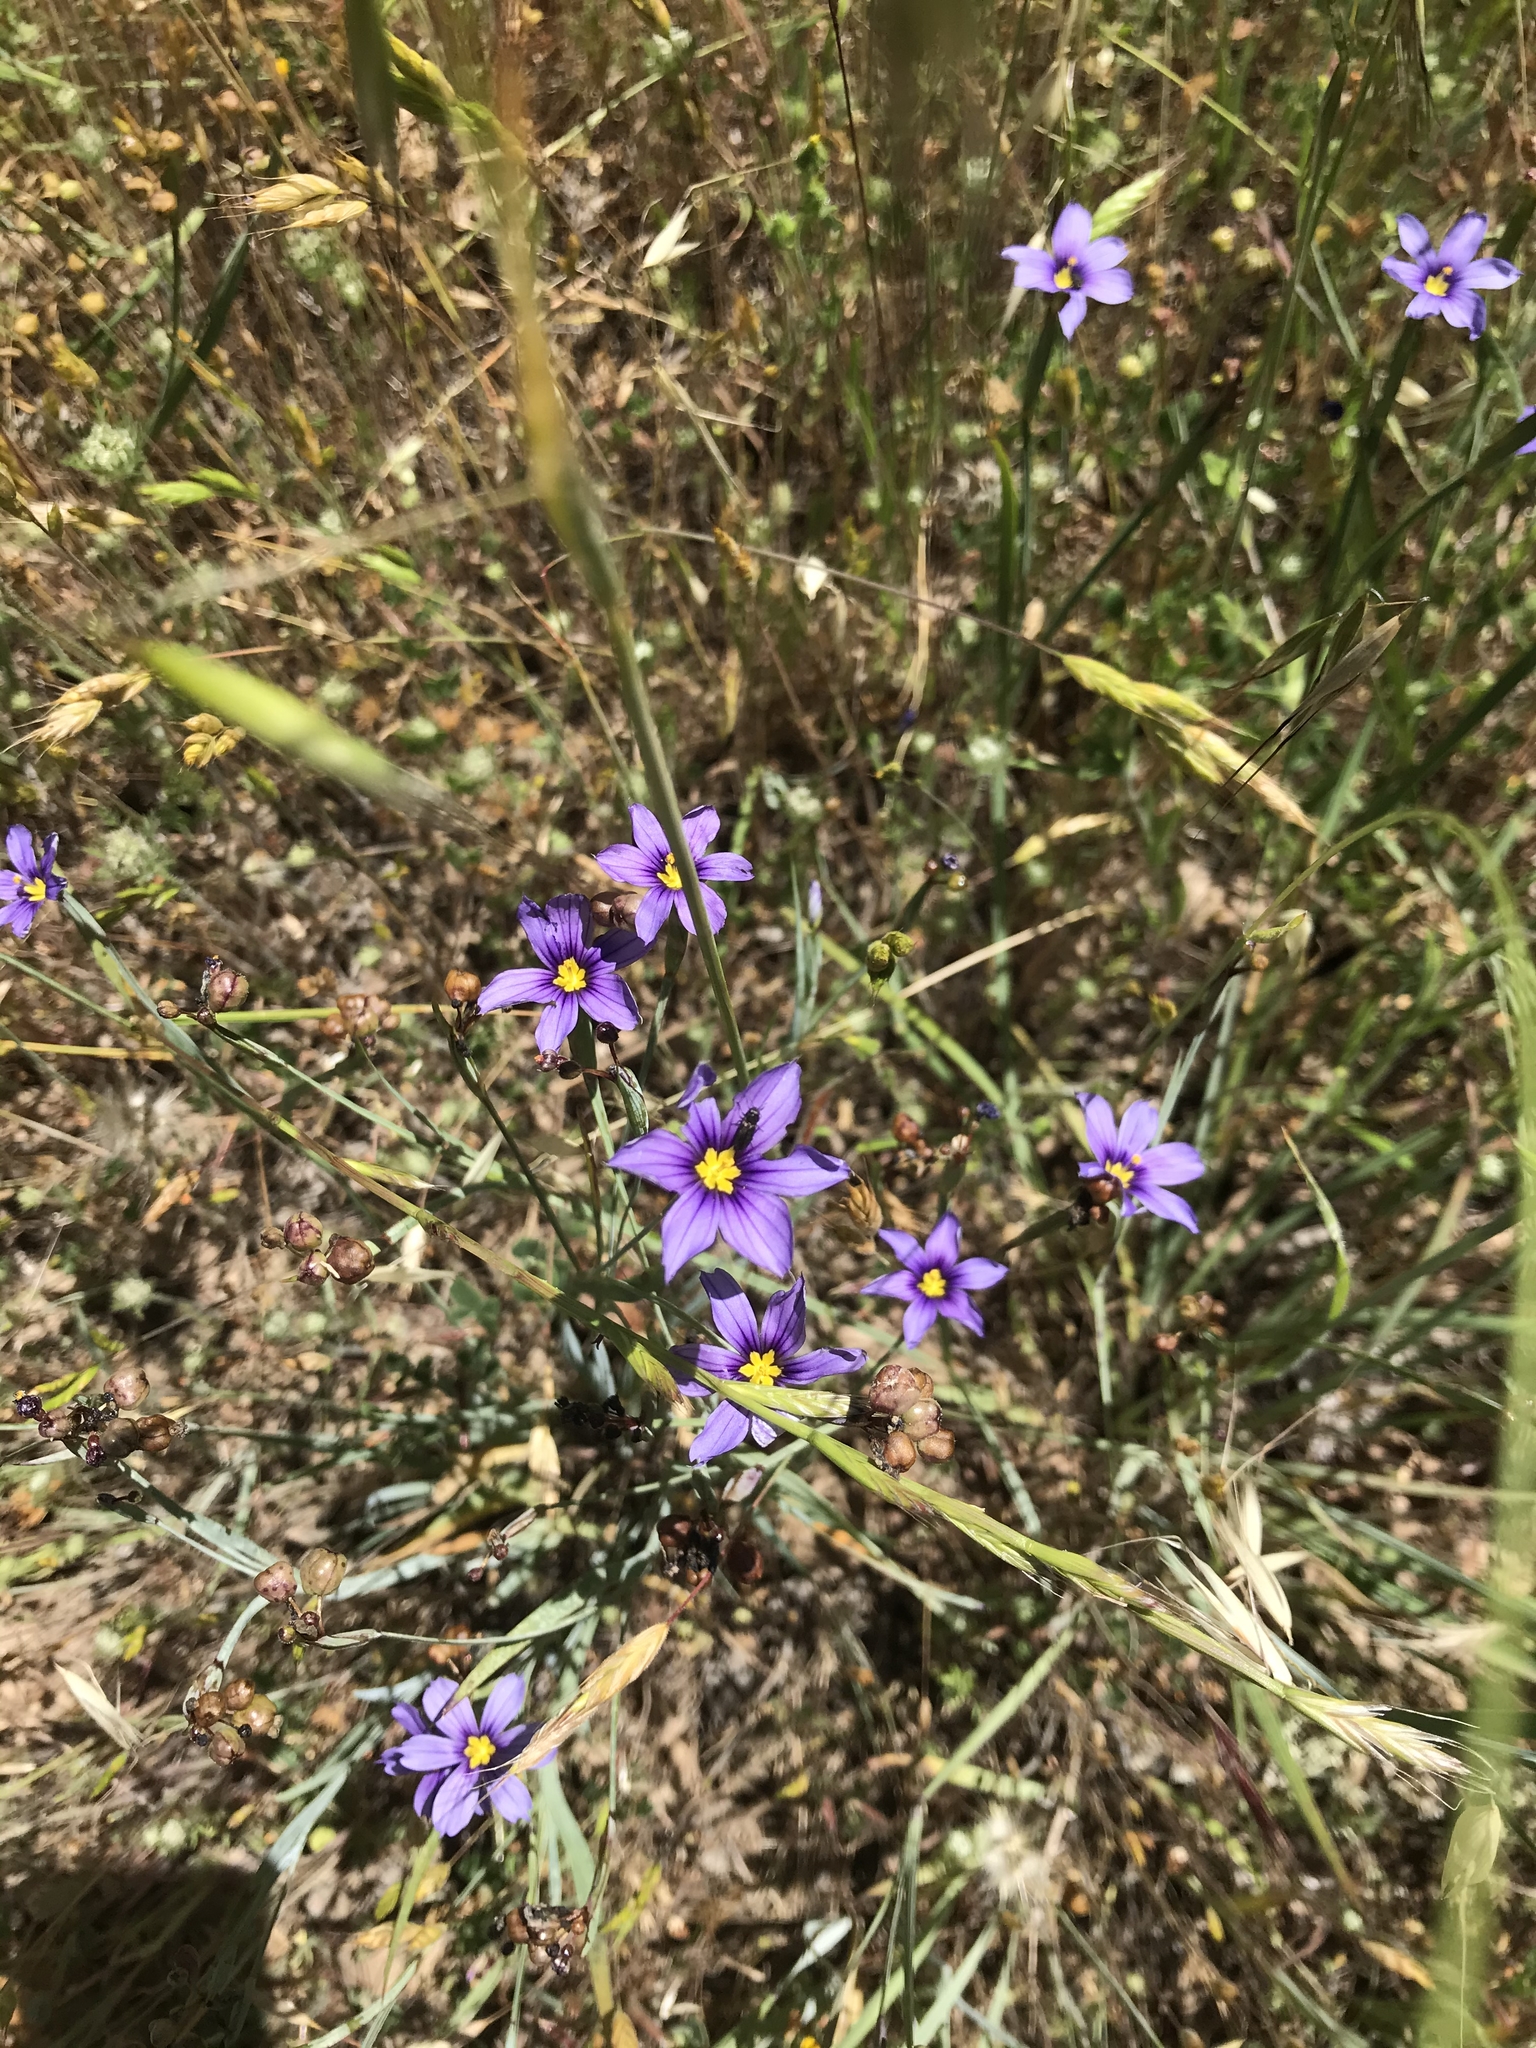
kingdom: Plantae
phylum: Tracheophyta
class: Liliopsida
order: Asparagales
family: Iridaceae
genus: Sisyrinchium
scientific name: Sisyrinchium bellum
